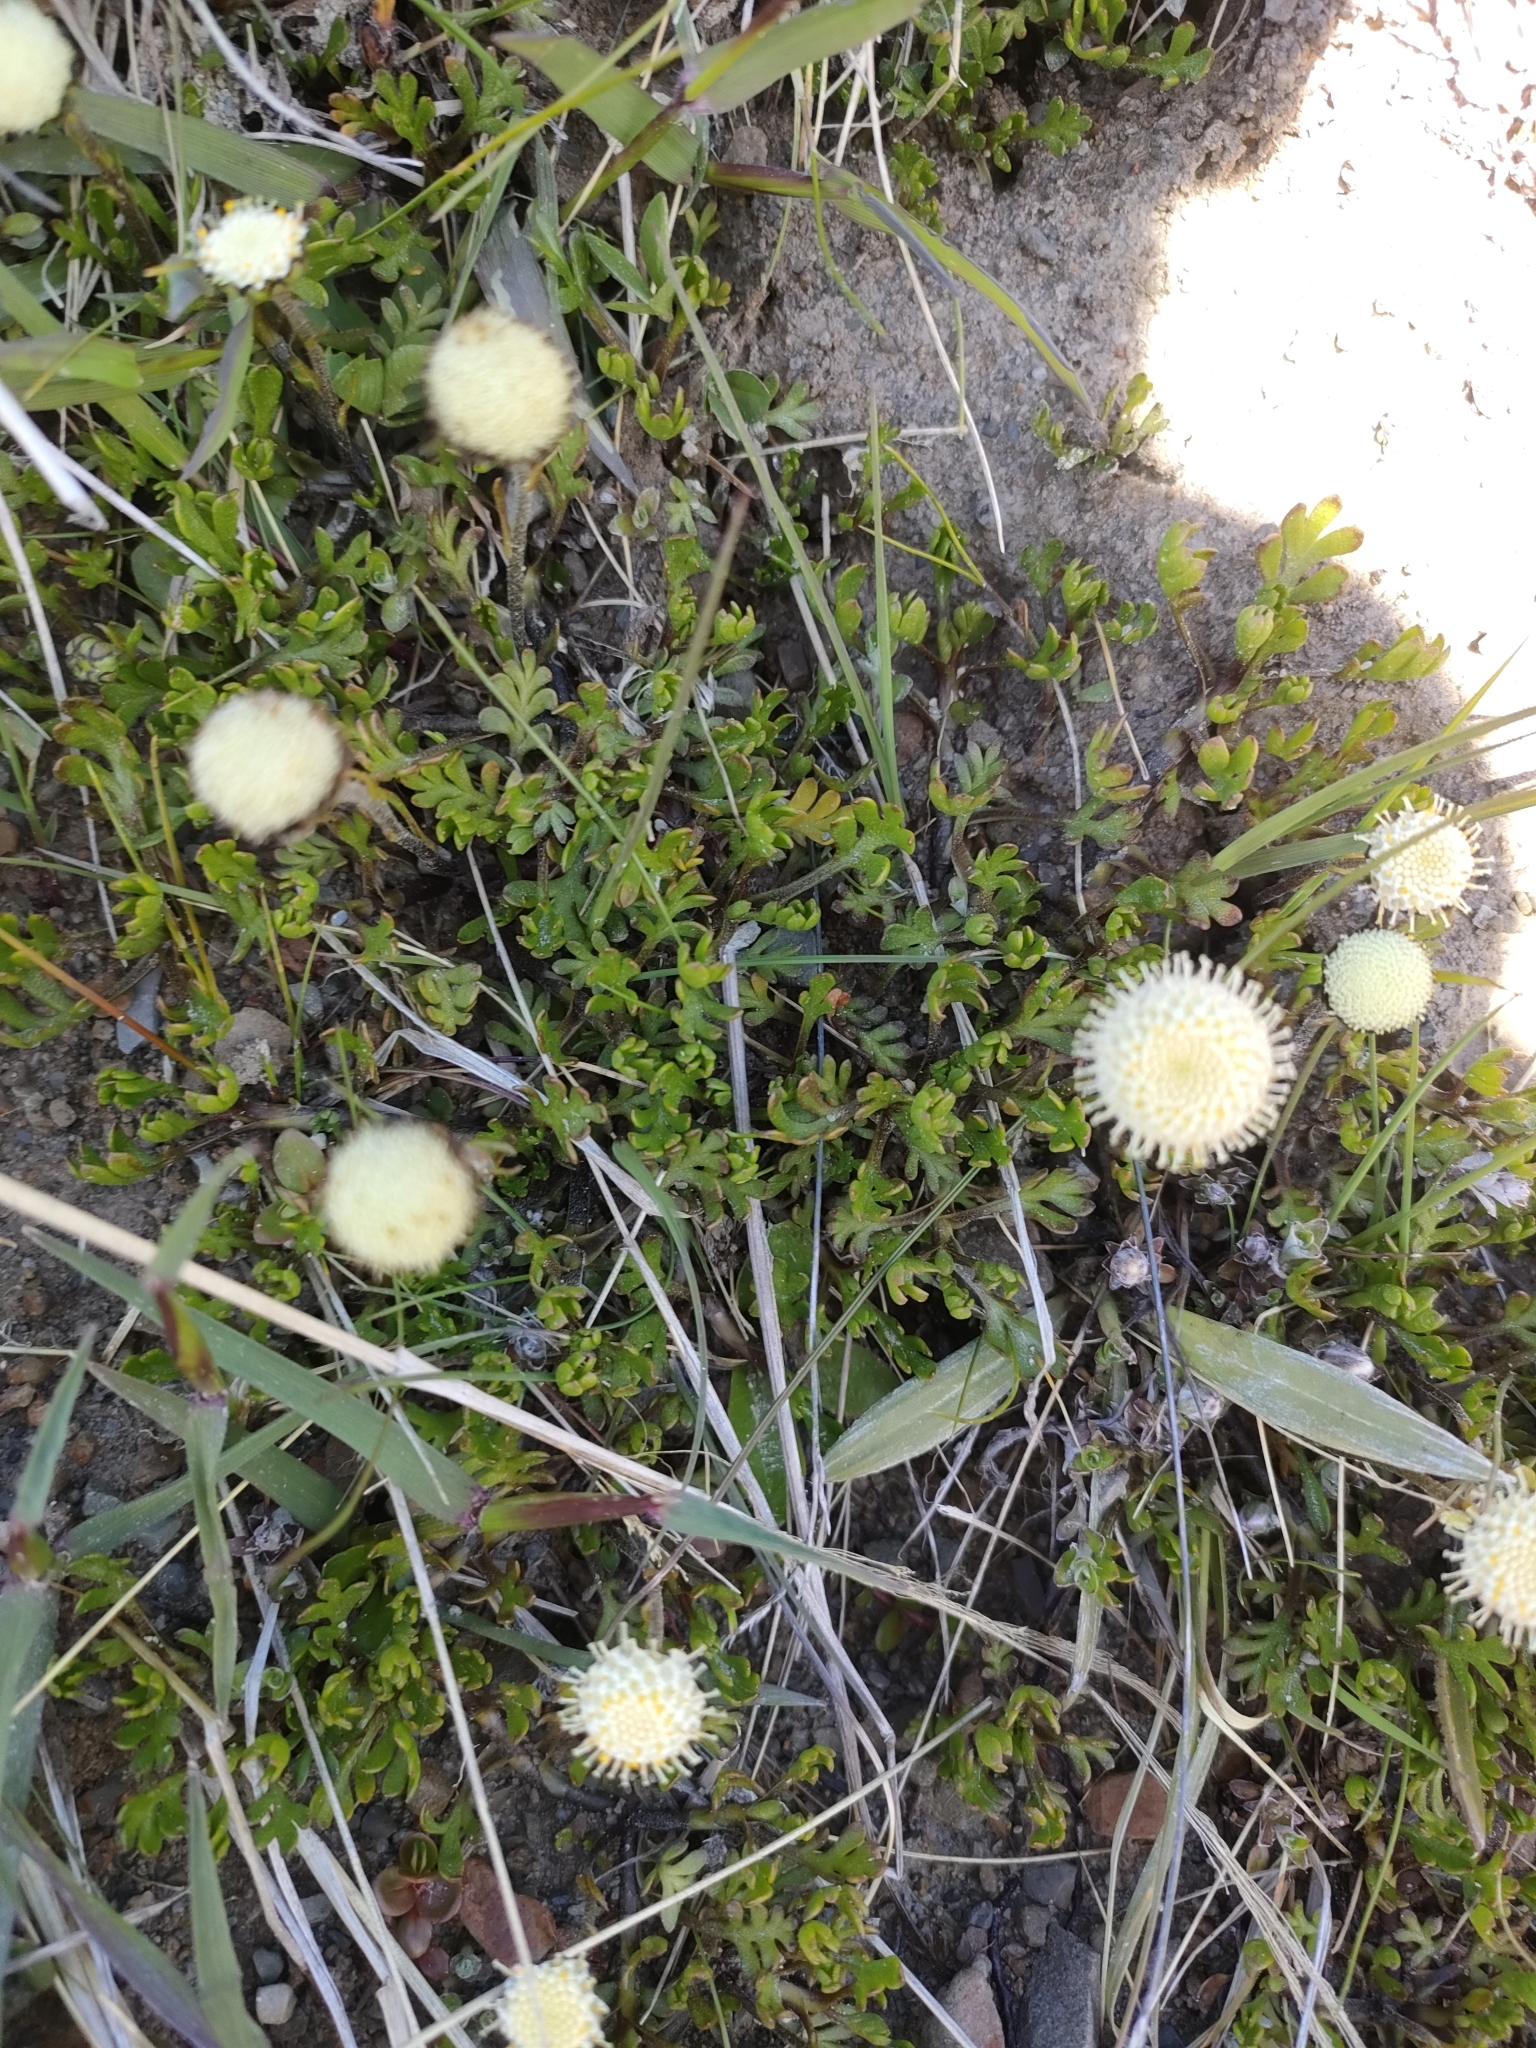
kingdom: Plantae
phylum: Tracheophyta
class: Magnoliopsida
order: Asterales
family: Asteraceae
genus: Leptinella
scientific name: Leptinella pyrethrifolia
